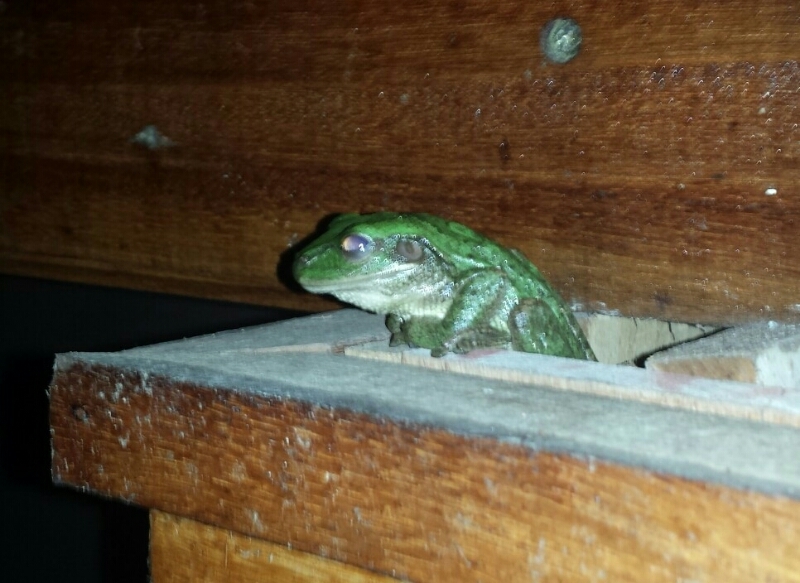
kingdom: Animalia
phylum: Chordata
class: Amphibia
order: Anura
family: Hylidae
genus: Osteopilus
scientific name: Osteopilus septentrionalis
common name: Cuban treefrog
